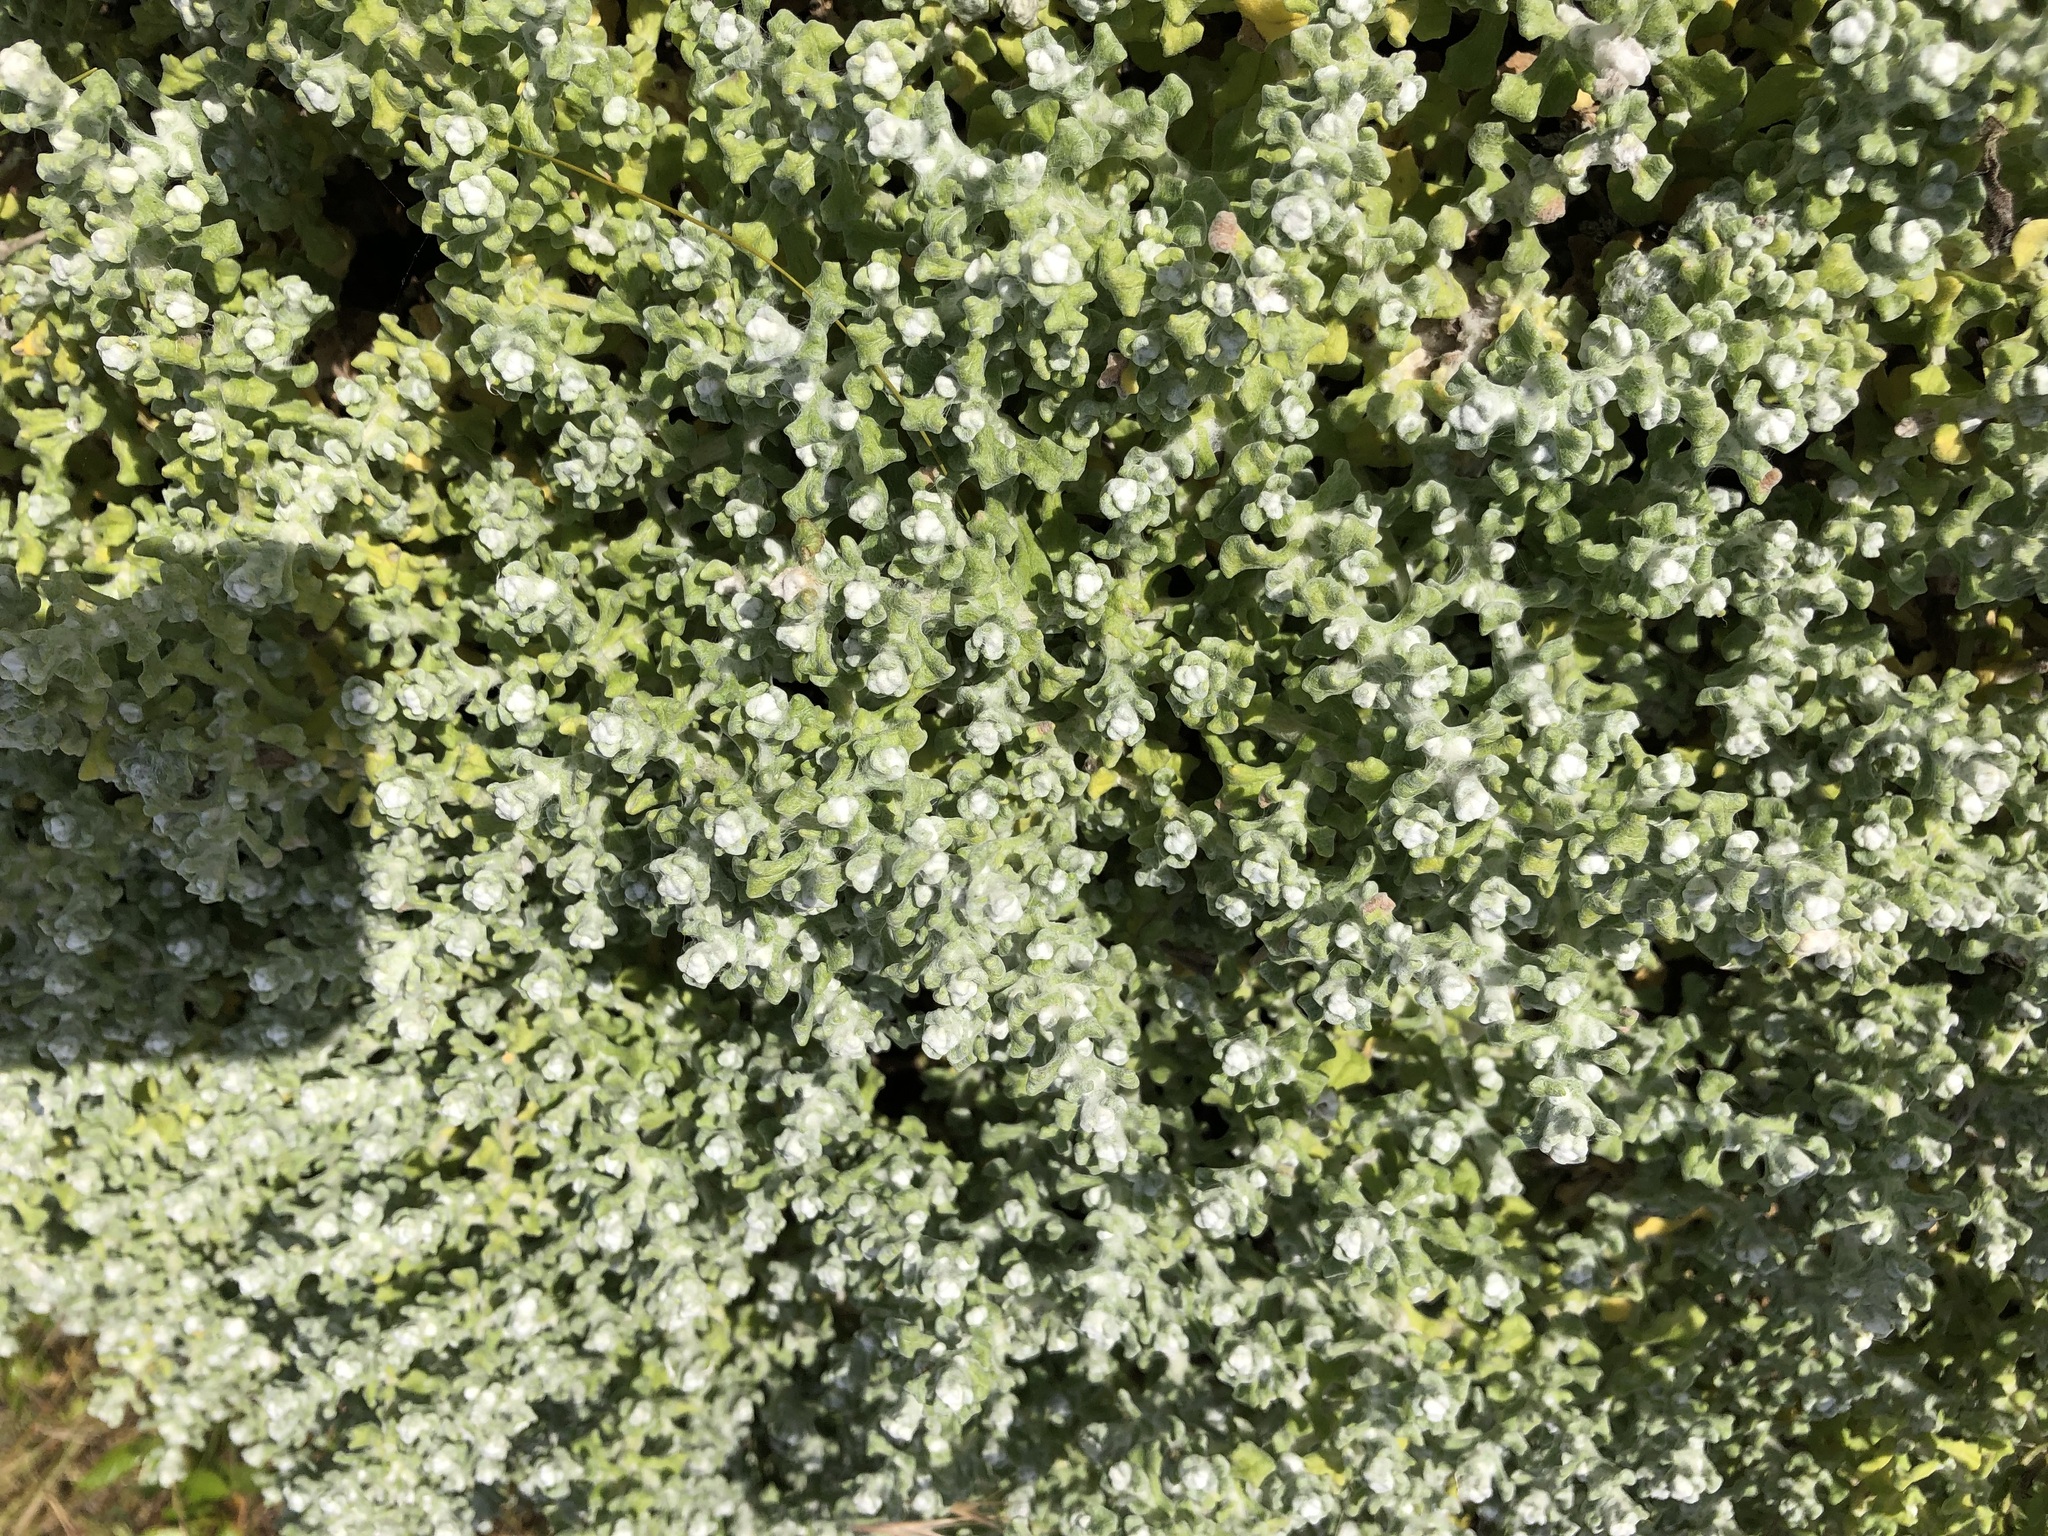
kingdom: Plantae
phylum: Tracheophyta
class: Magnoliopsida
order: Asterales
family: Asteraceae
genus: Helichrysum
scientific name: Helichrysum patulum
